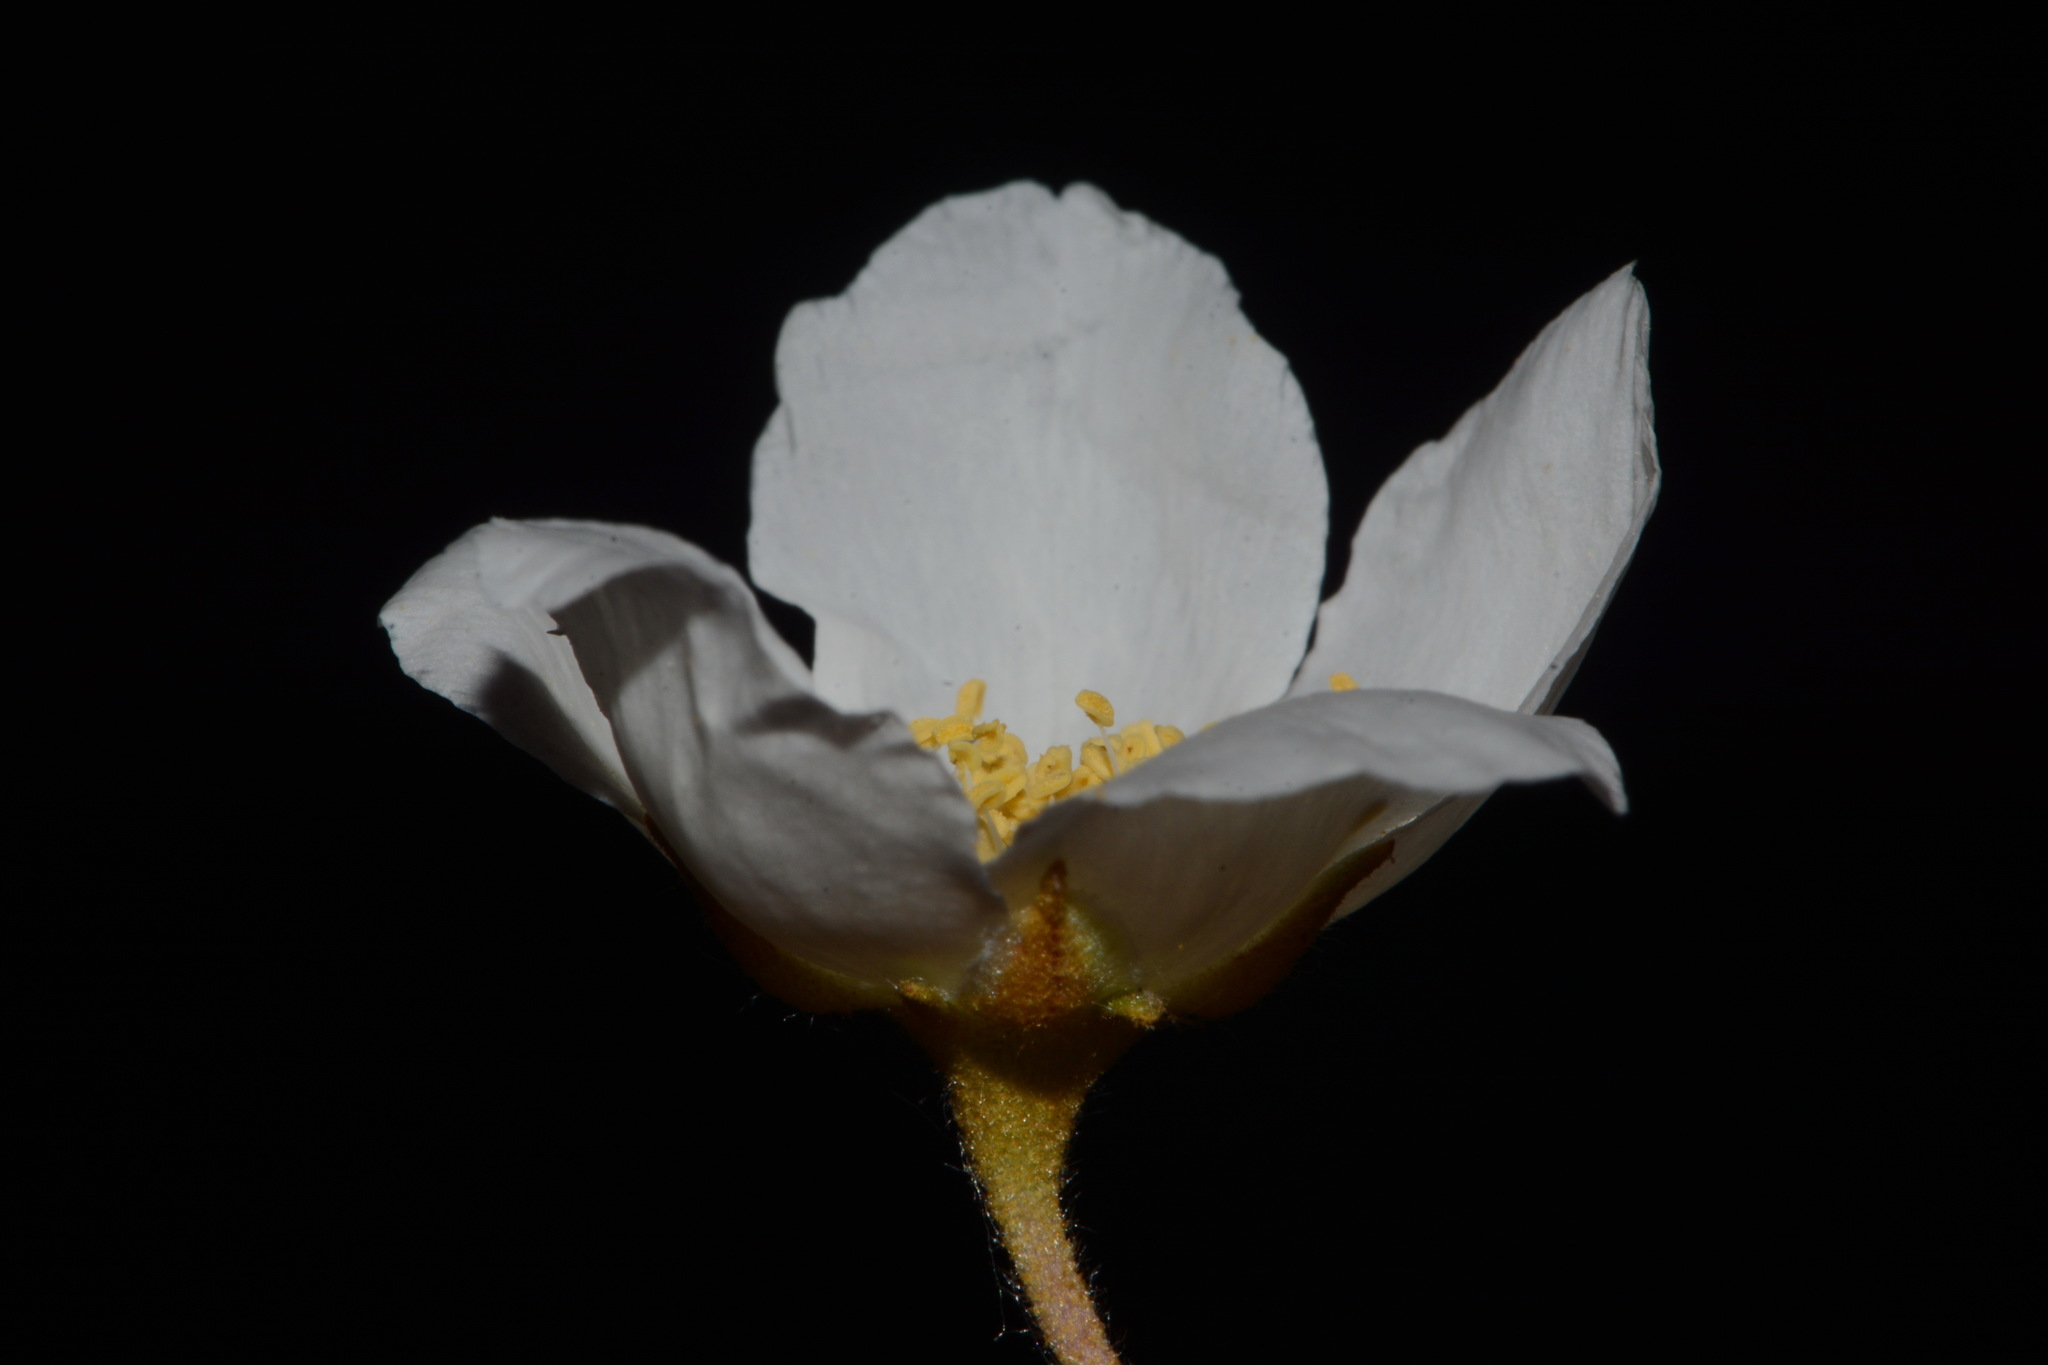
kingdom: Plantae
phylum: Tracheophyta
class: Magnoliopsida
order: Rosales
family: Rosaceae
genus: Fallugia
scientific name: Fallugia paradoxa
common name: Apache-plume
